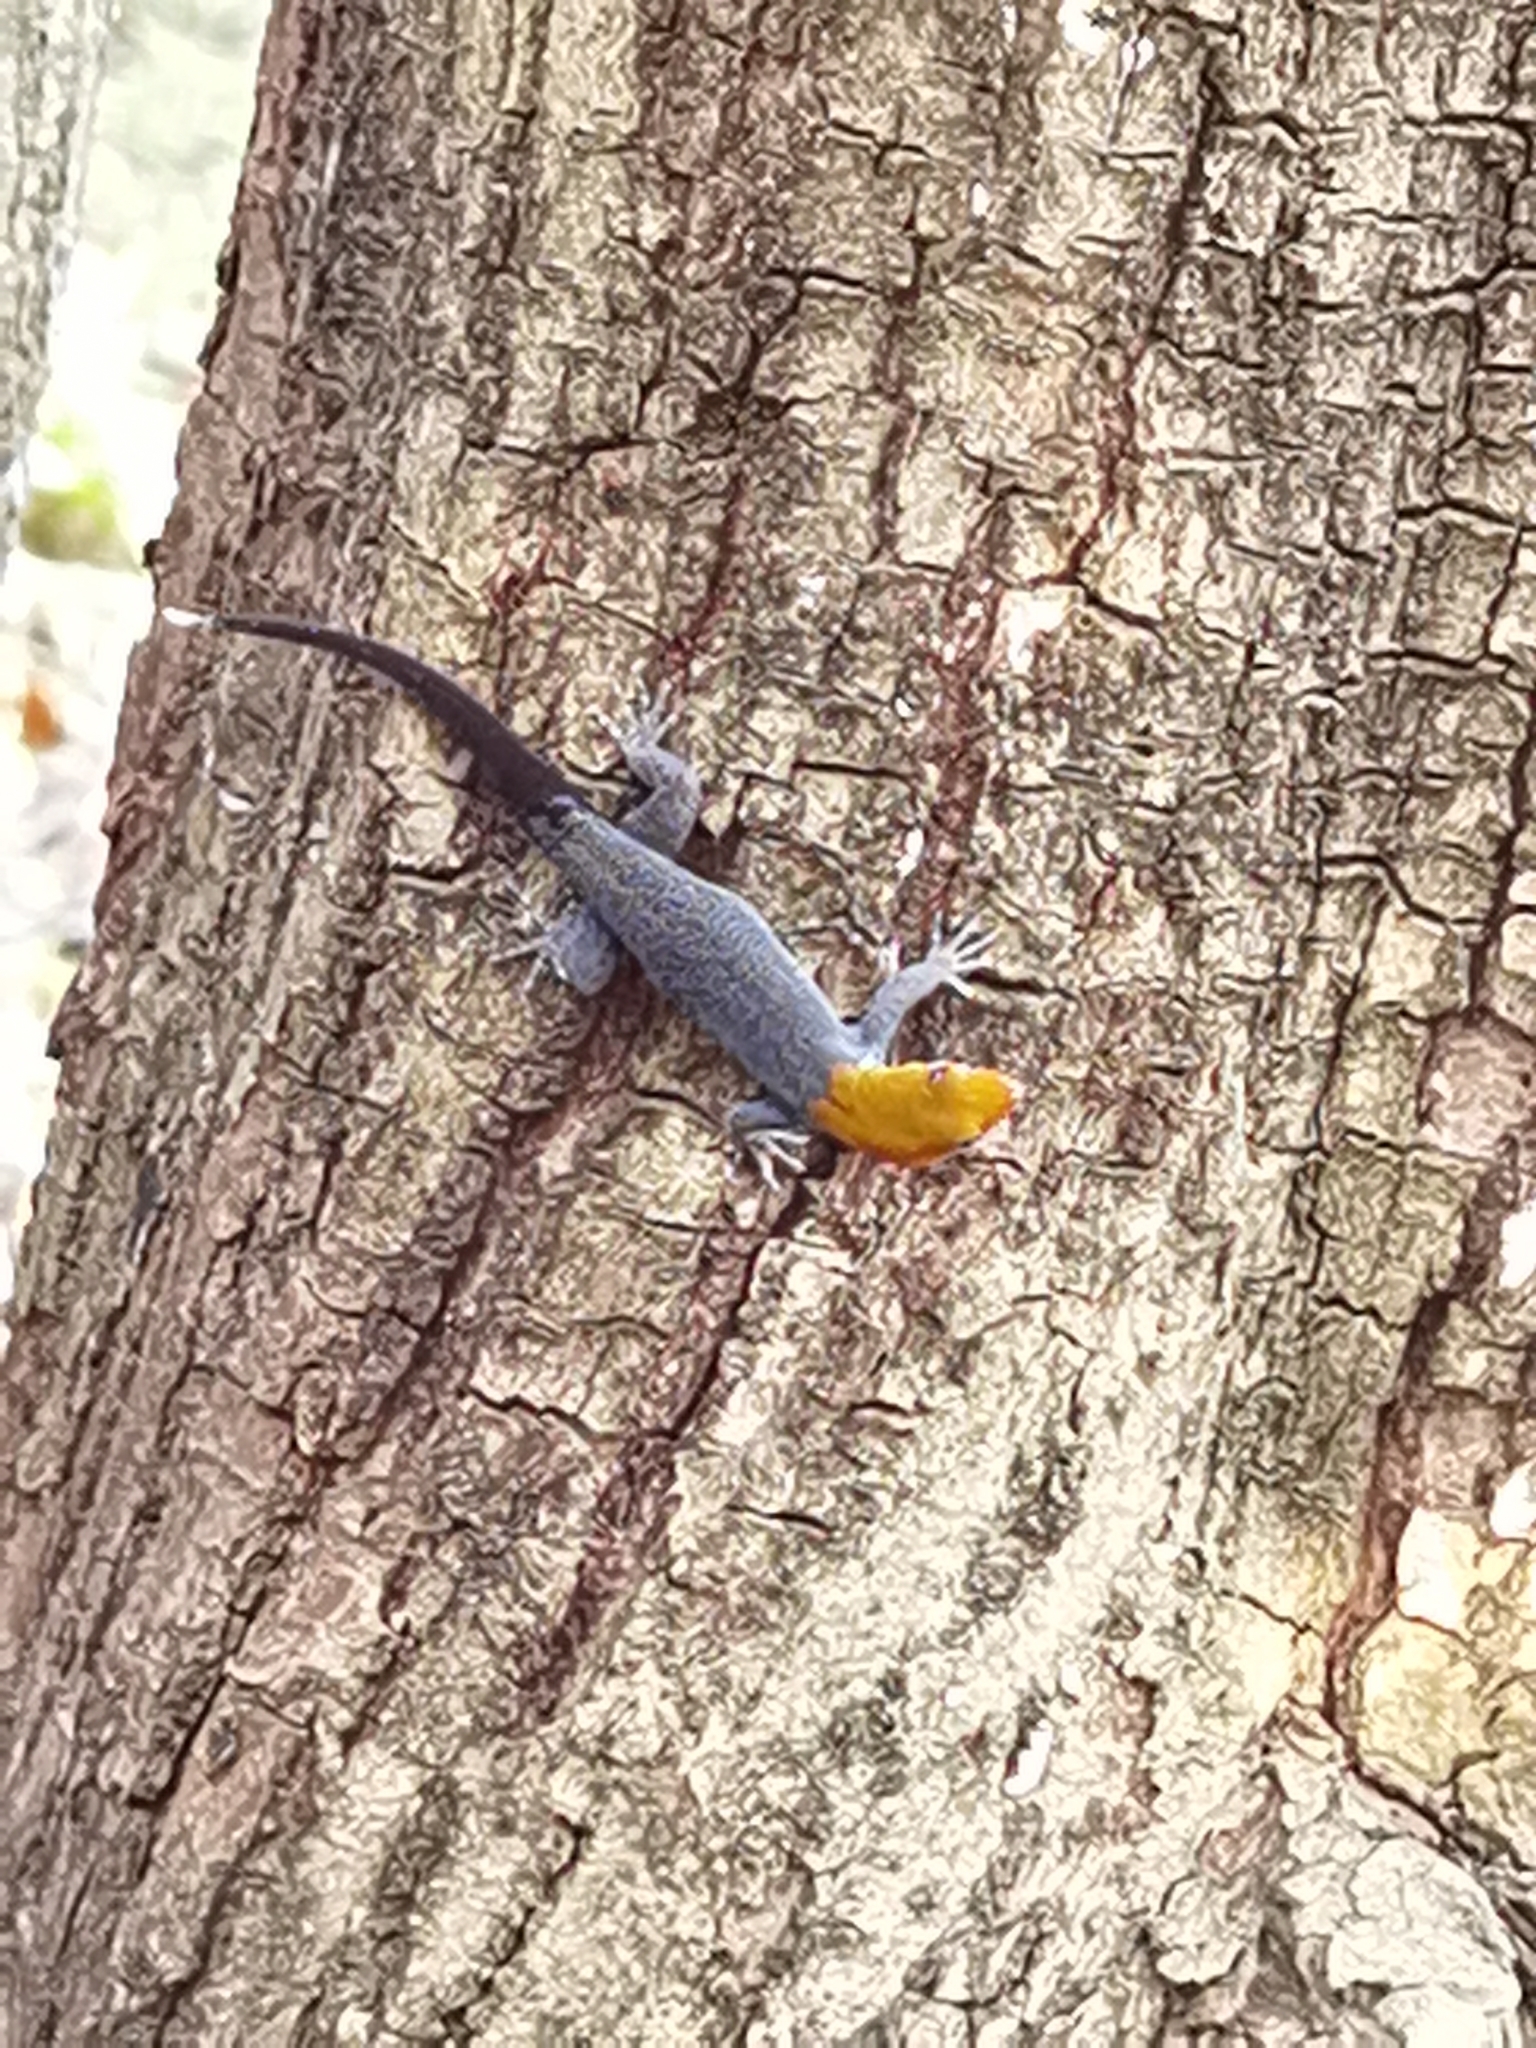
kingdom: Animalia
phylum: Chordata
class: Squamata
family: Sphaerodactylidae
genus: Gonatodes
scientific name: Gonatodes albogularis
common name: Yellow-headed gecko
